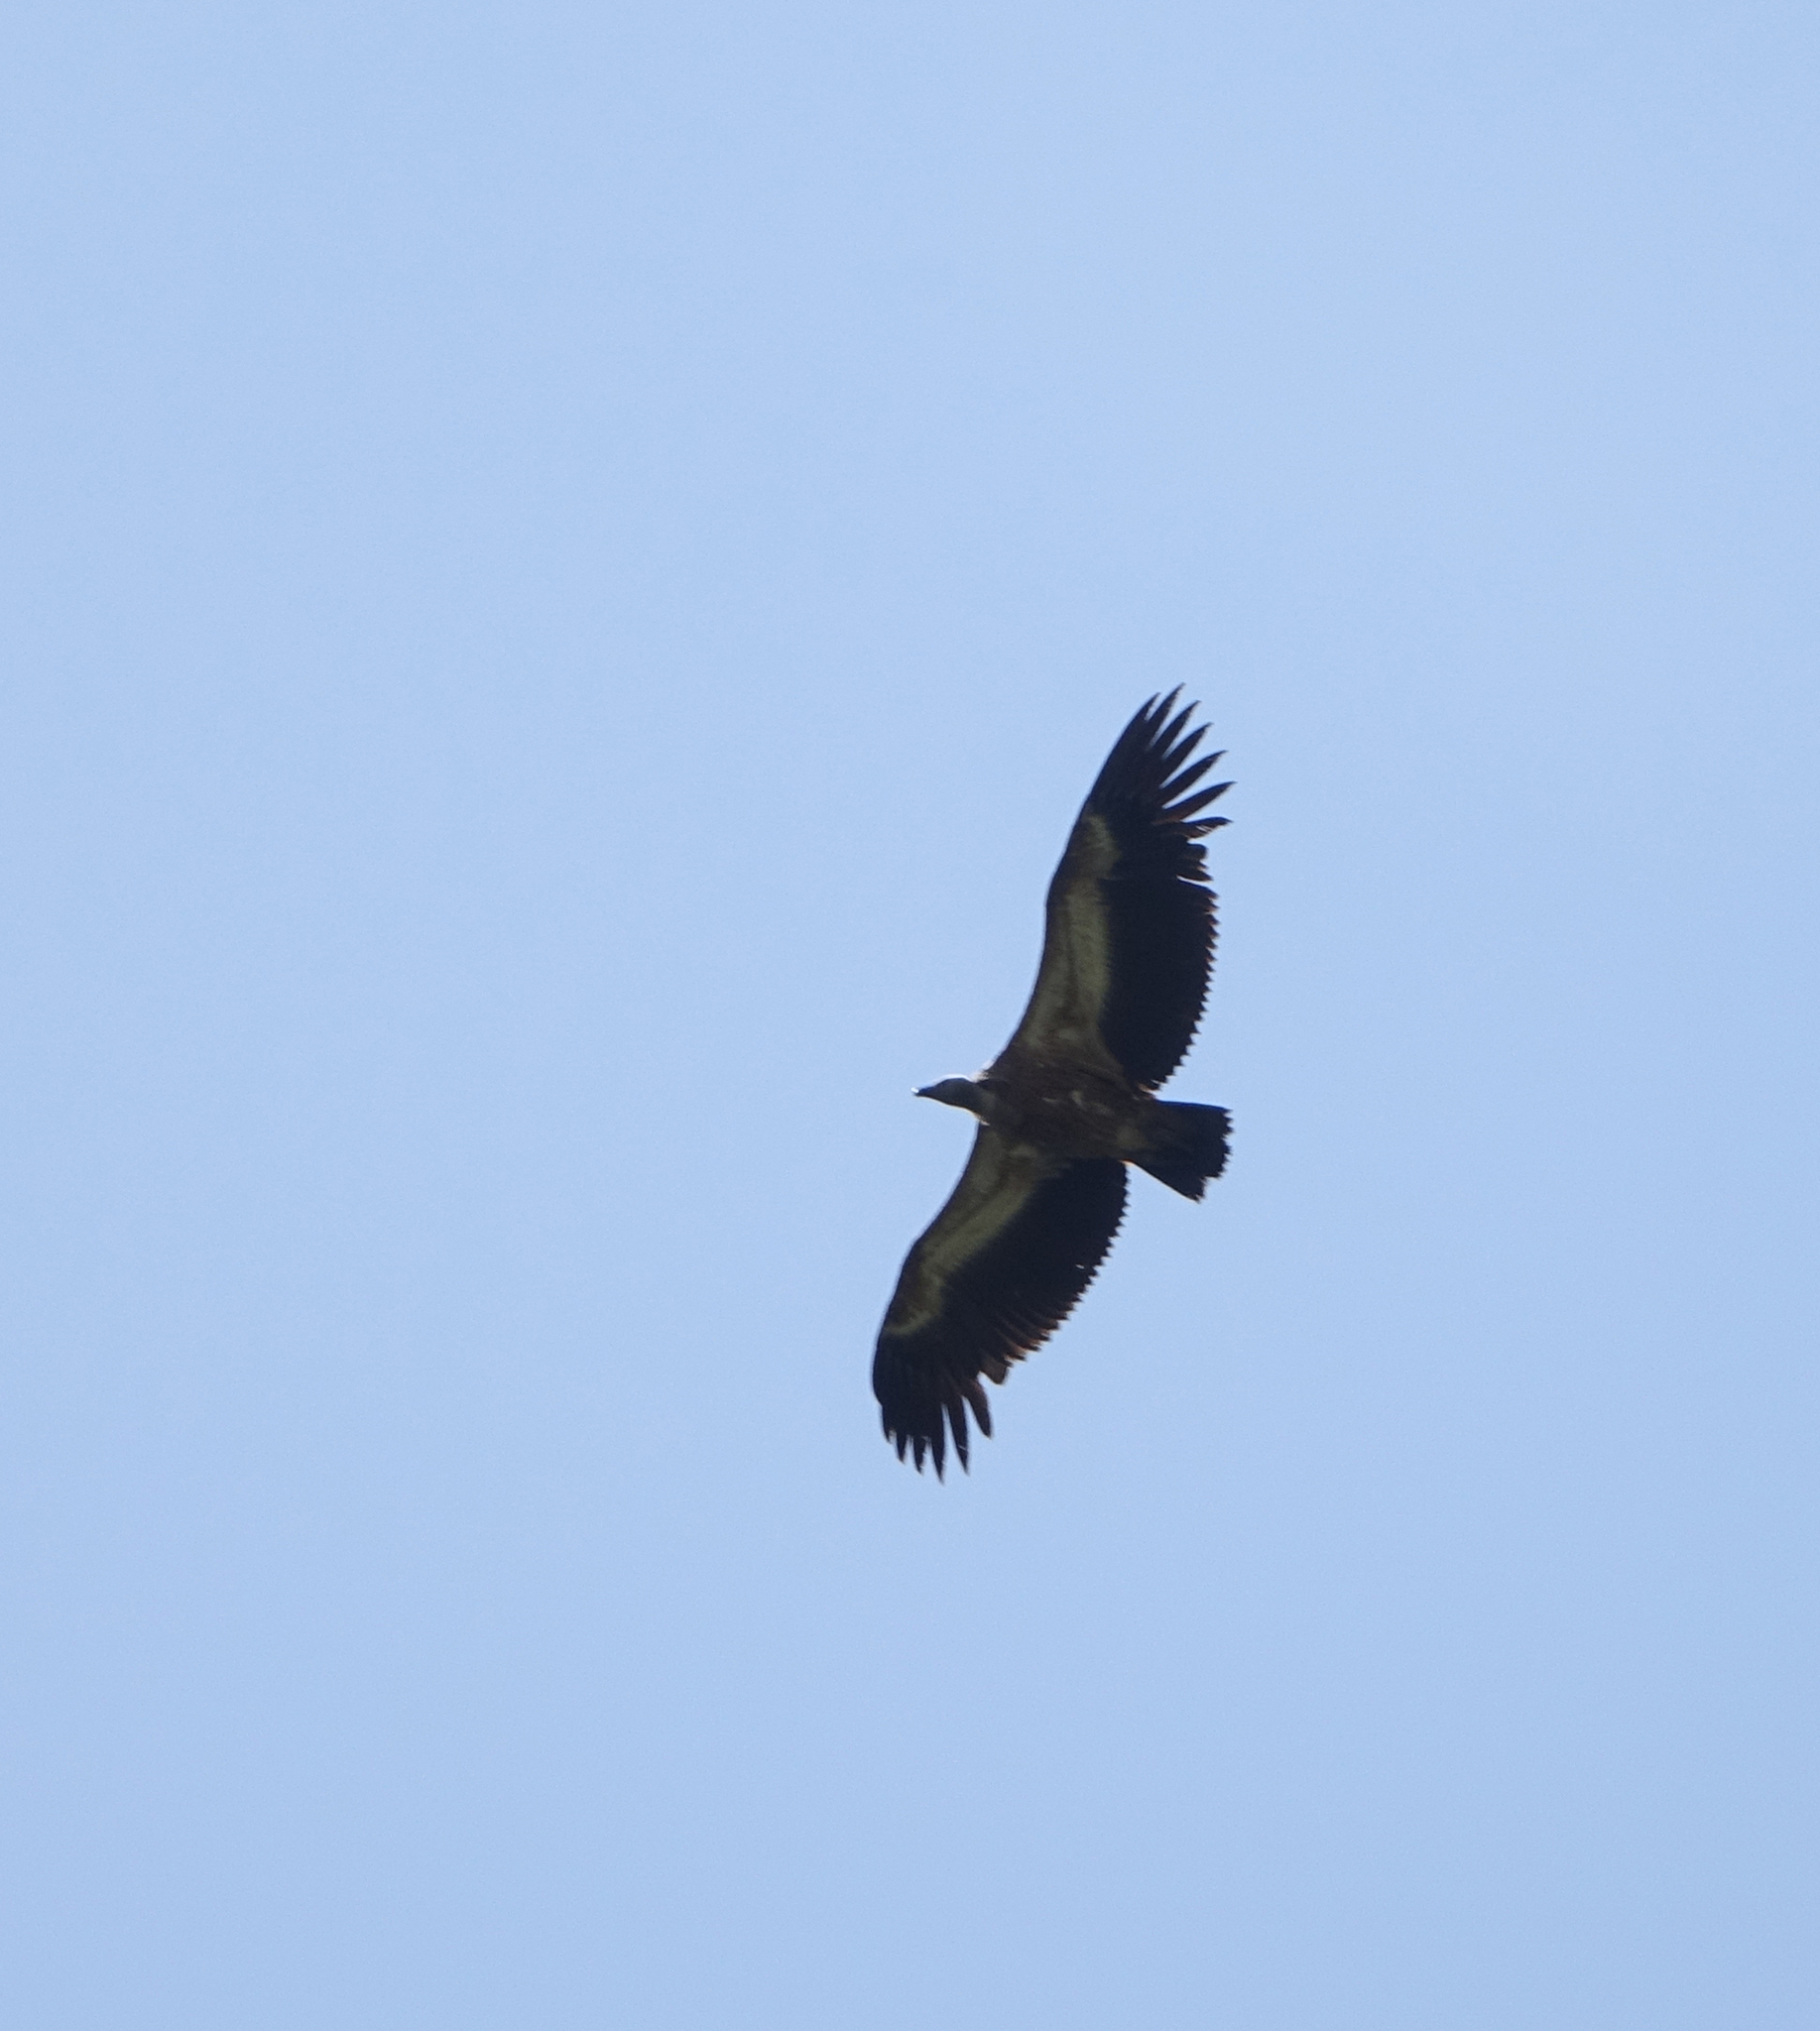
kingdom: Animalia
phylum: Chordata
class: Aves
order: Accipitriformes
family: Accipitridae
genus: Gyps
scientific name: Gyps fulvus
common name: Griffon vulture
